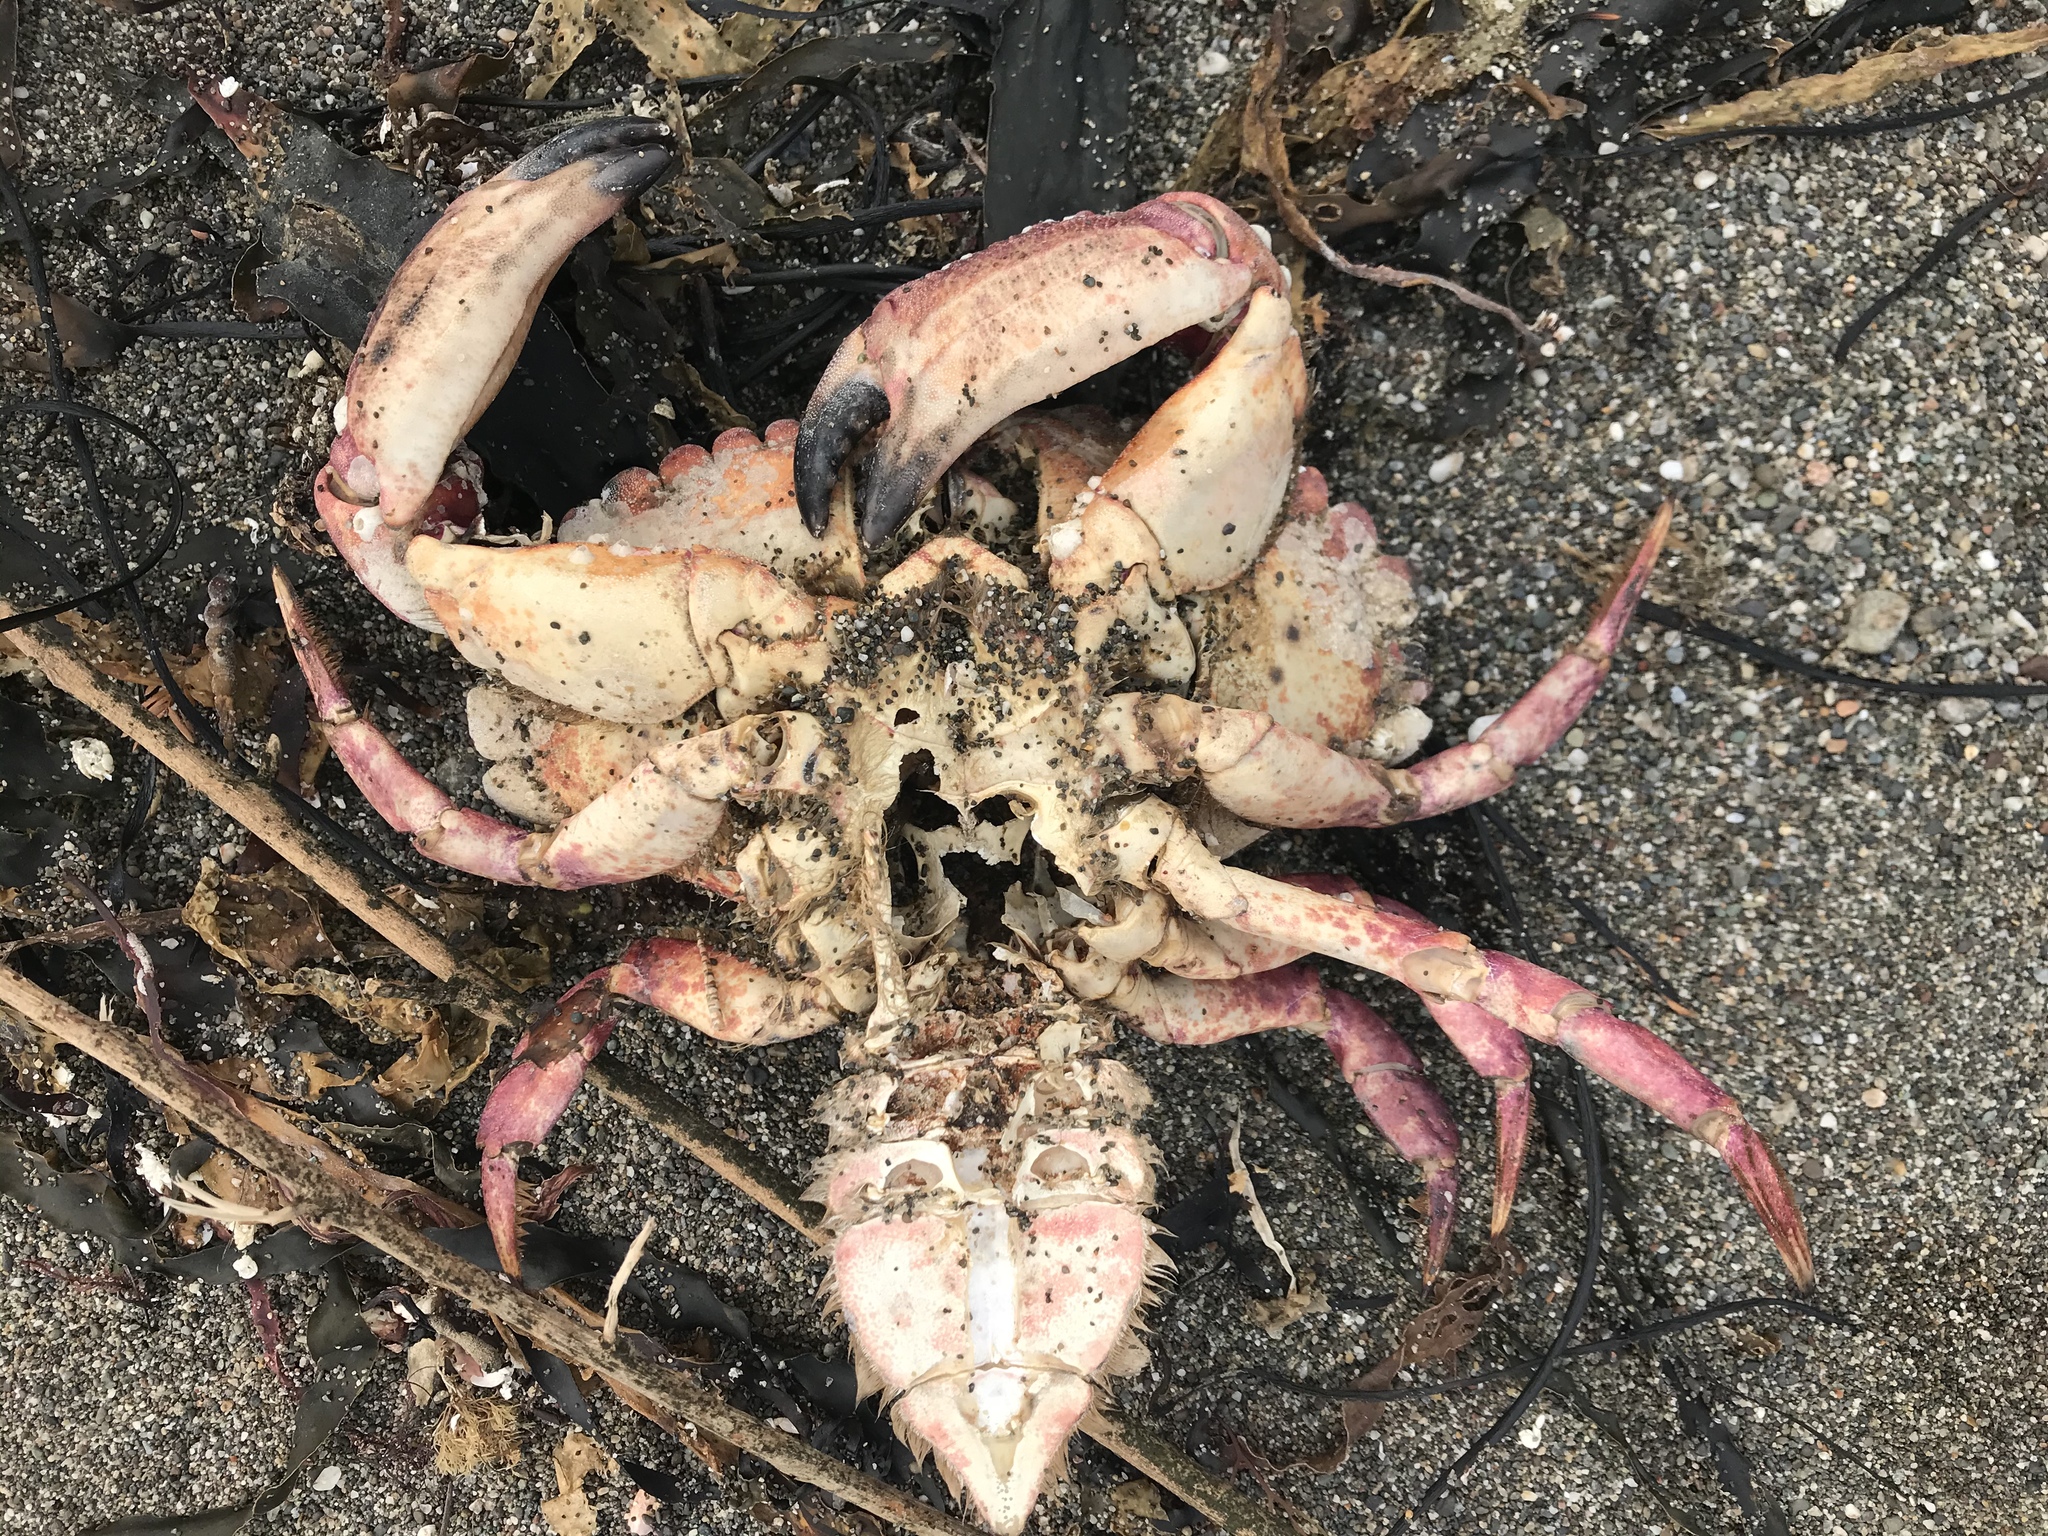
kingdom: Animalia
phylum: Arthropoda
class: Malacostraca
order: Decapoda
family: Cancridae
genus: Cancer
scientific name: Cancer productus
